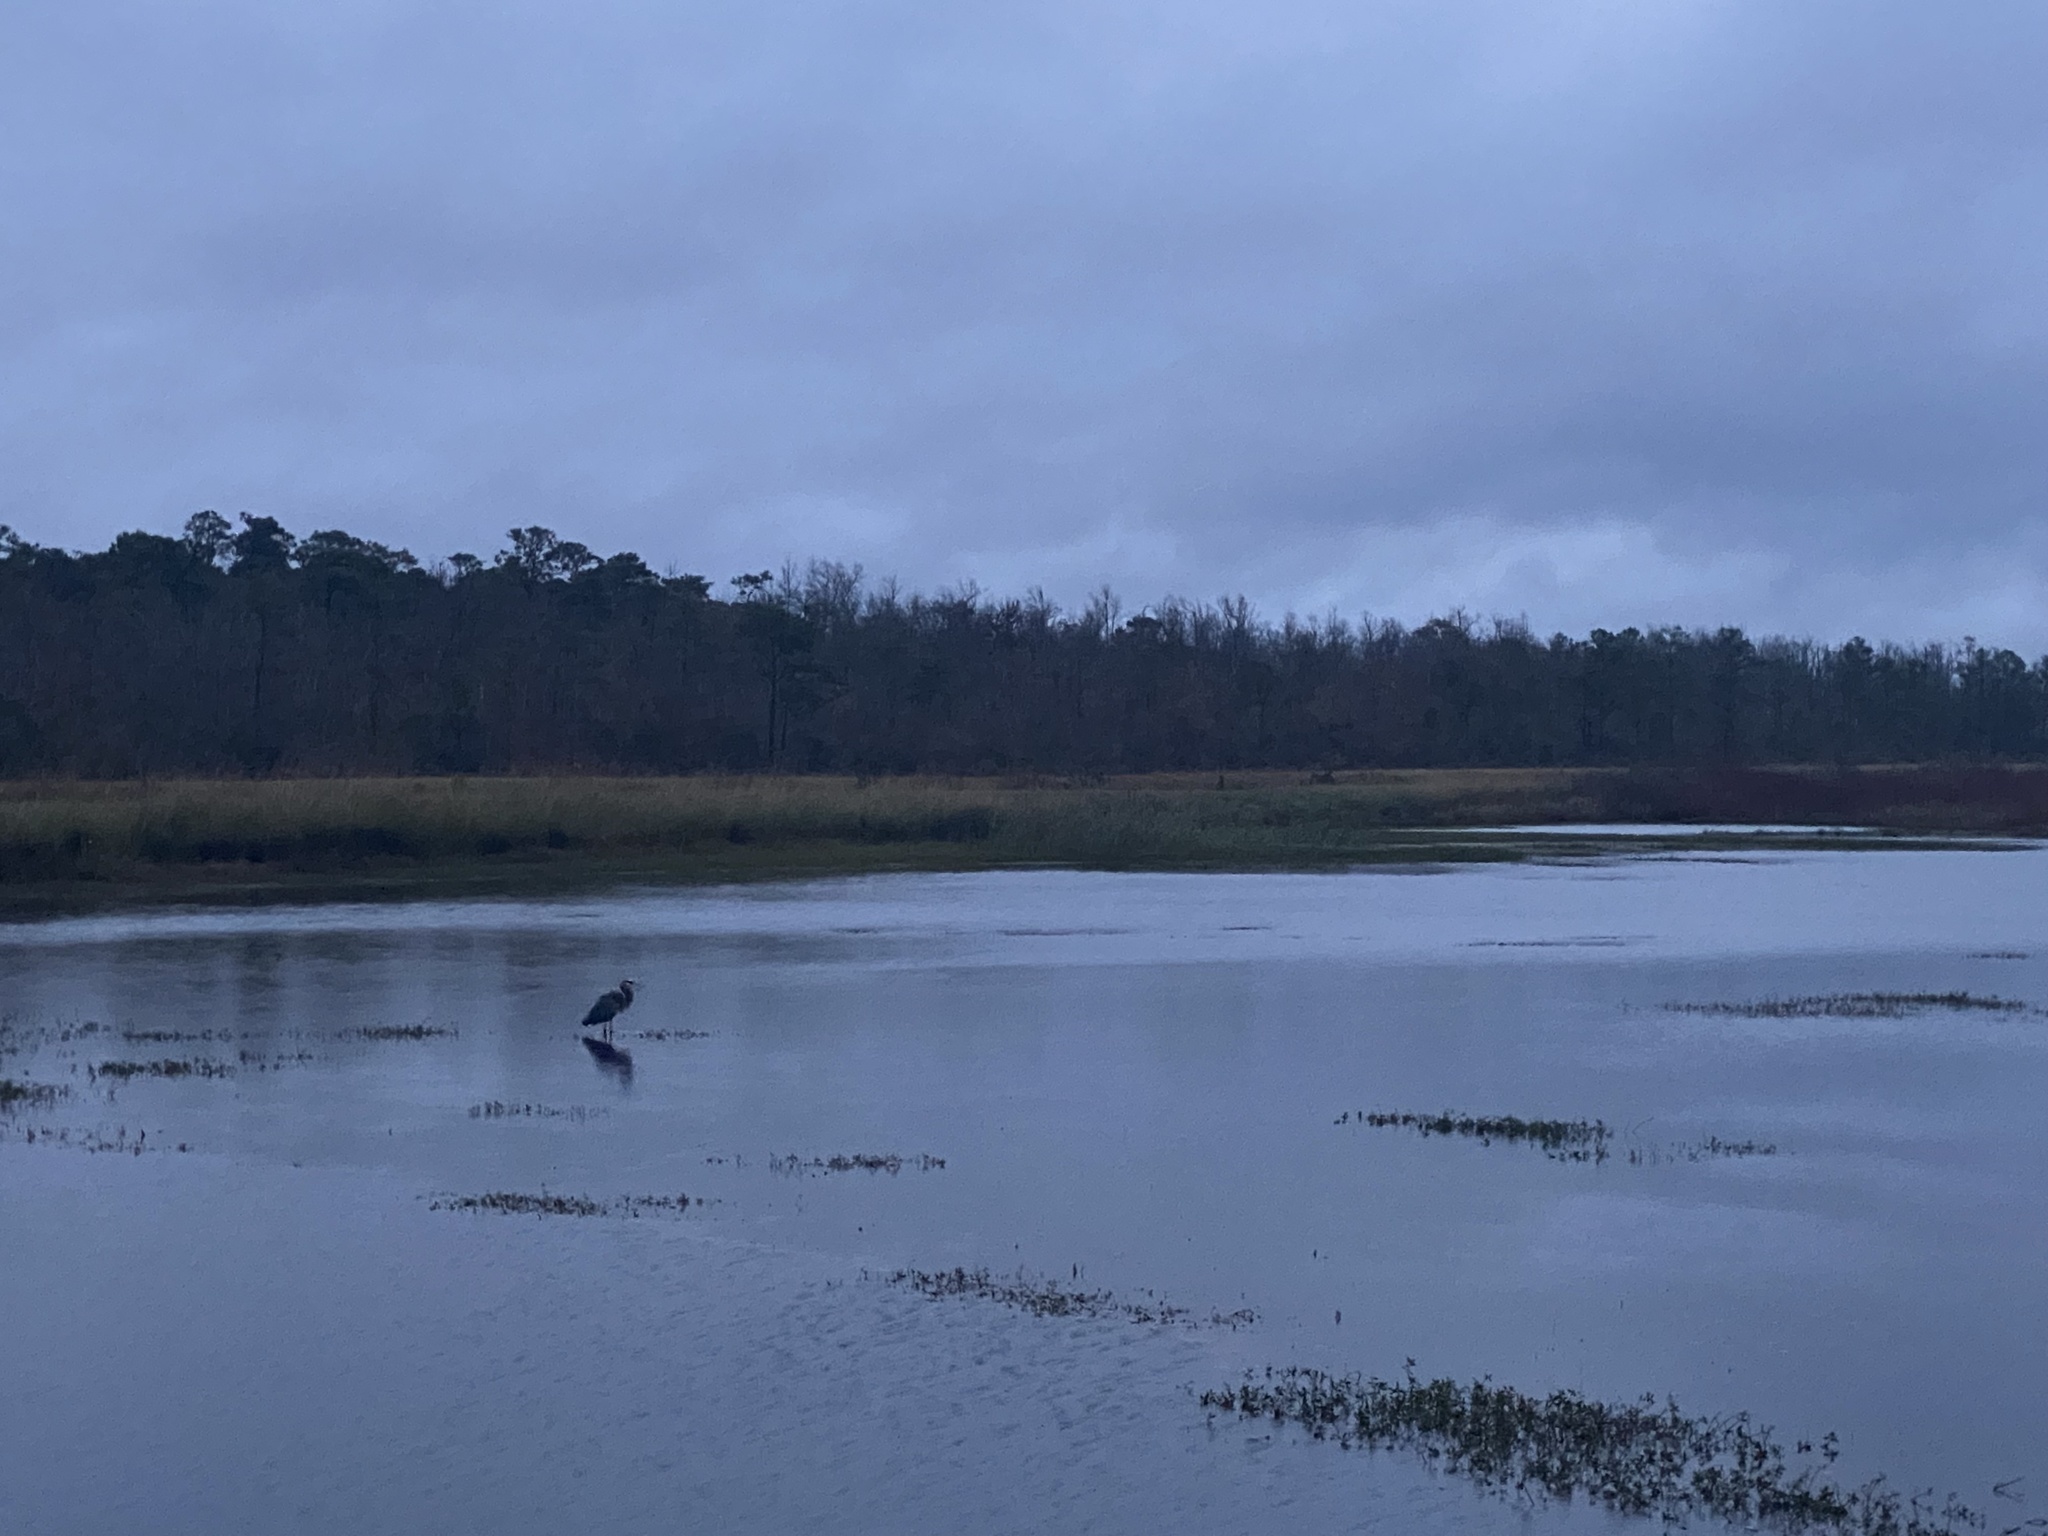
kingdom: Animalia
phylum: Chordata
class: Aves
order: Pelecaniformes
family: Ardeidae
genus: Ardea
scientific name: Ardea herodias
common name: Great blue heron
